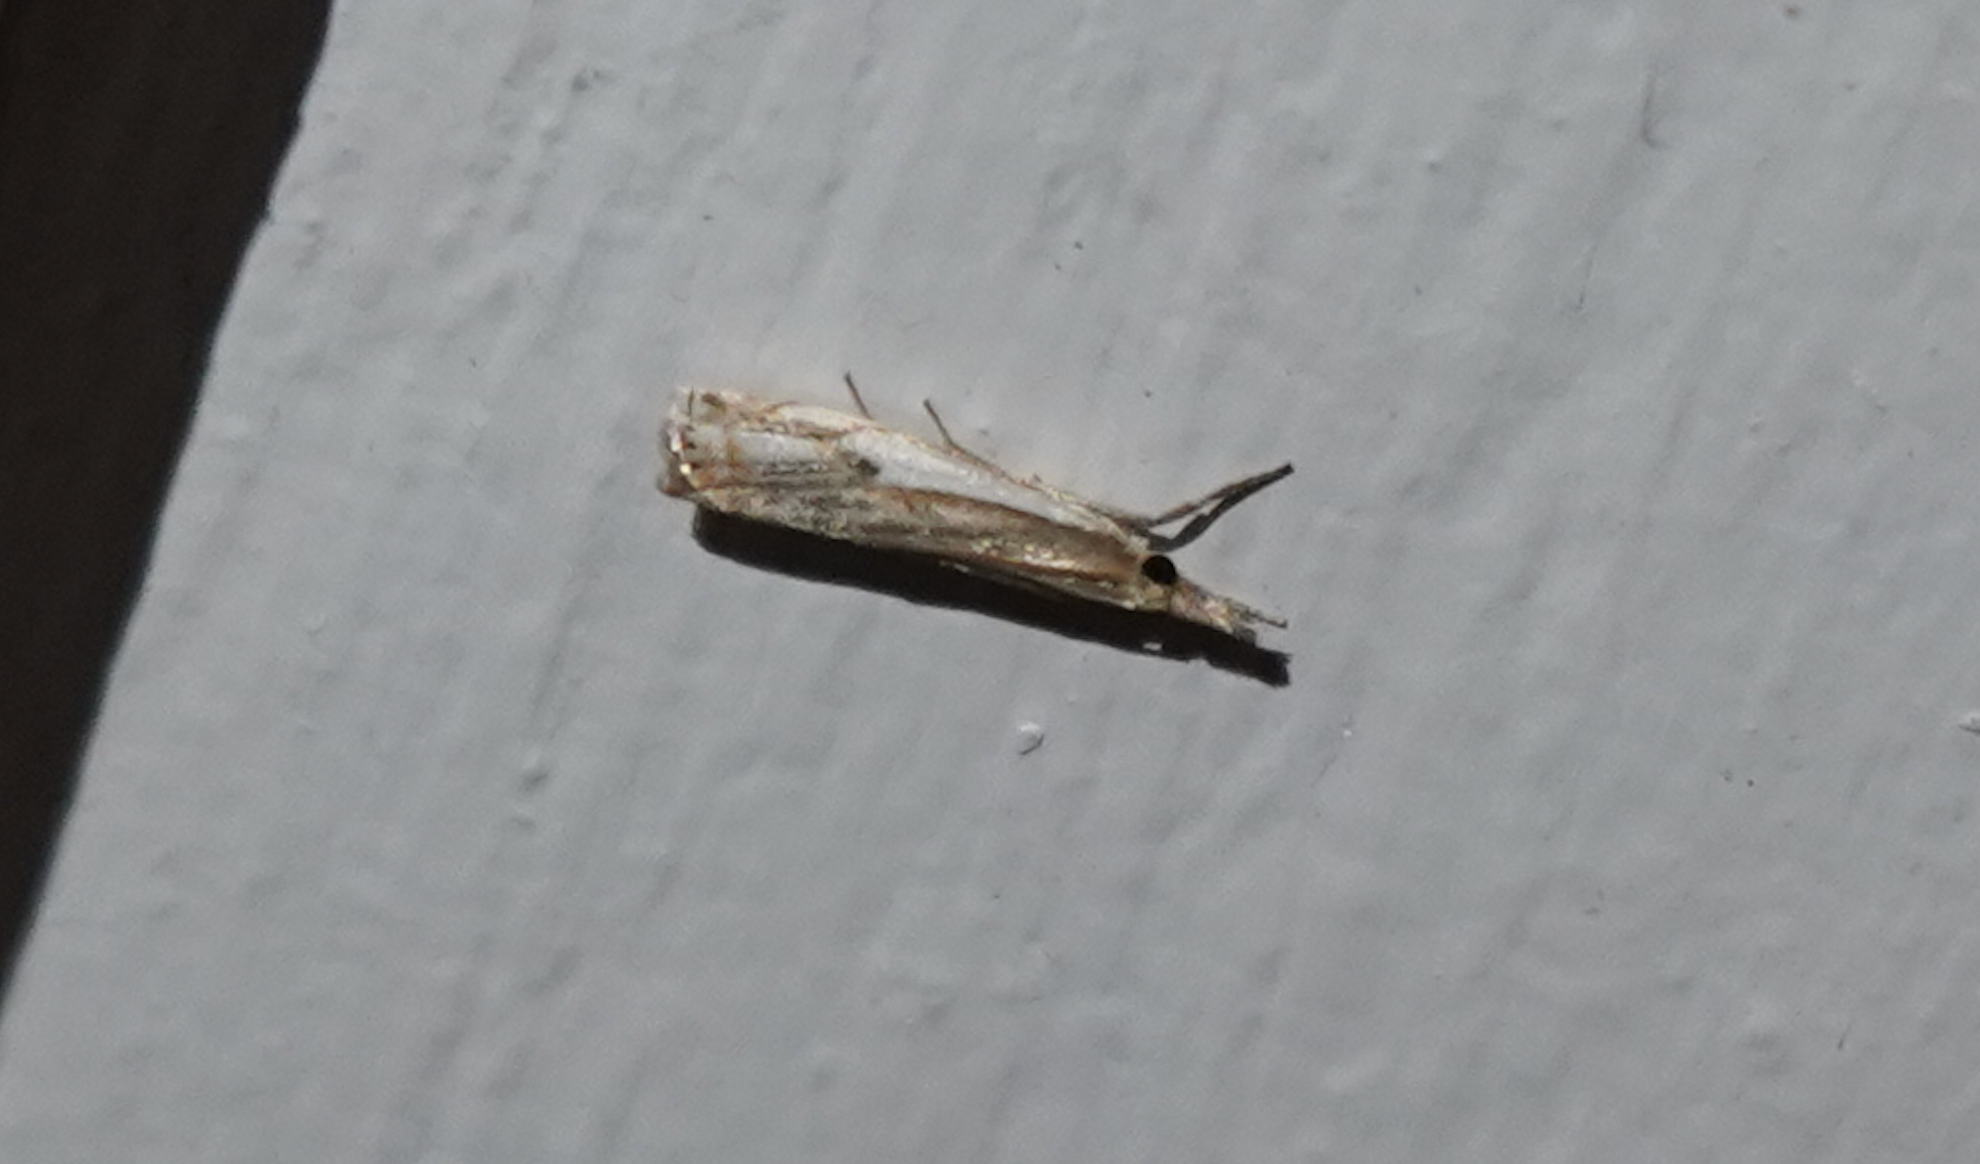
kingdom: Animalia
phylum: Arthropoda
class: Insecta
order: Lepidoptera
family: Crambidae
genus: Crambus
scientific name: Crambus agitatellus
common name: Double-banded grass-veneer
